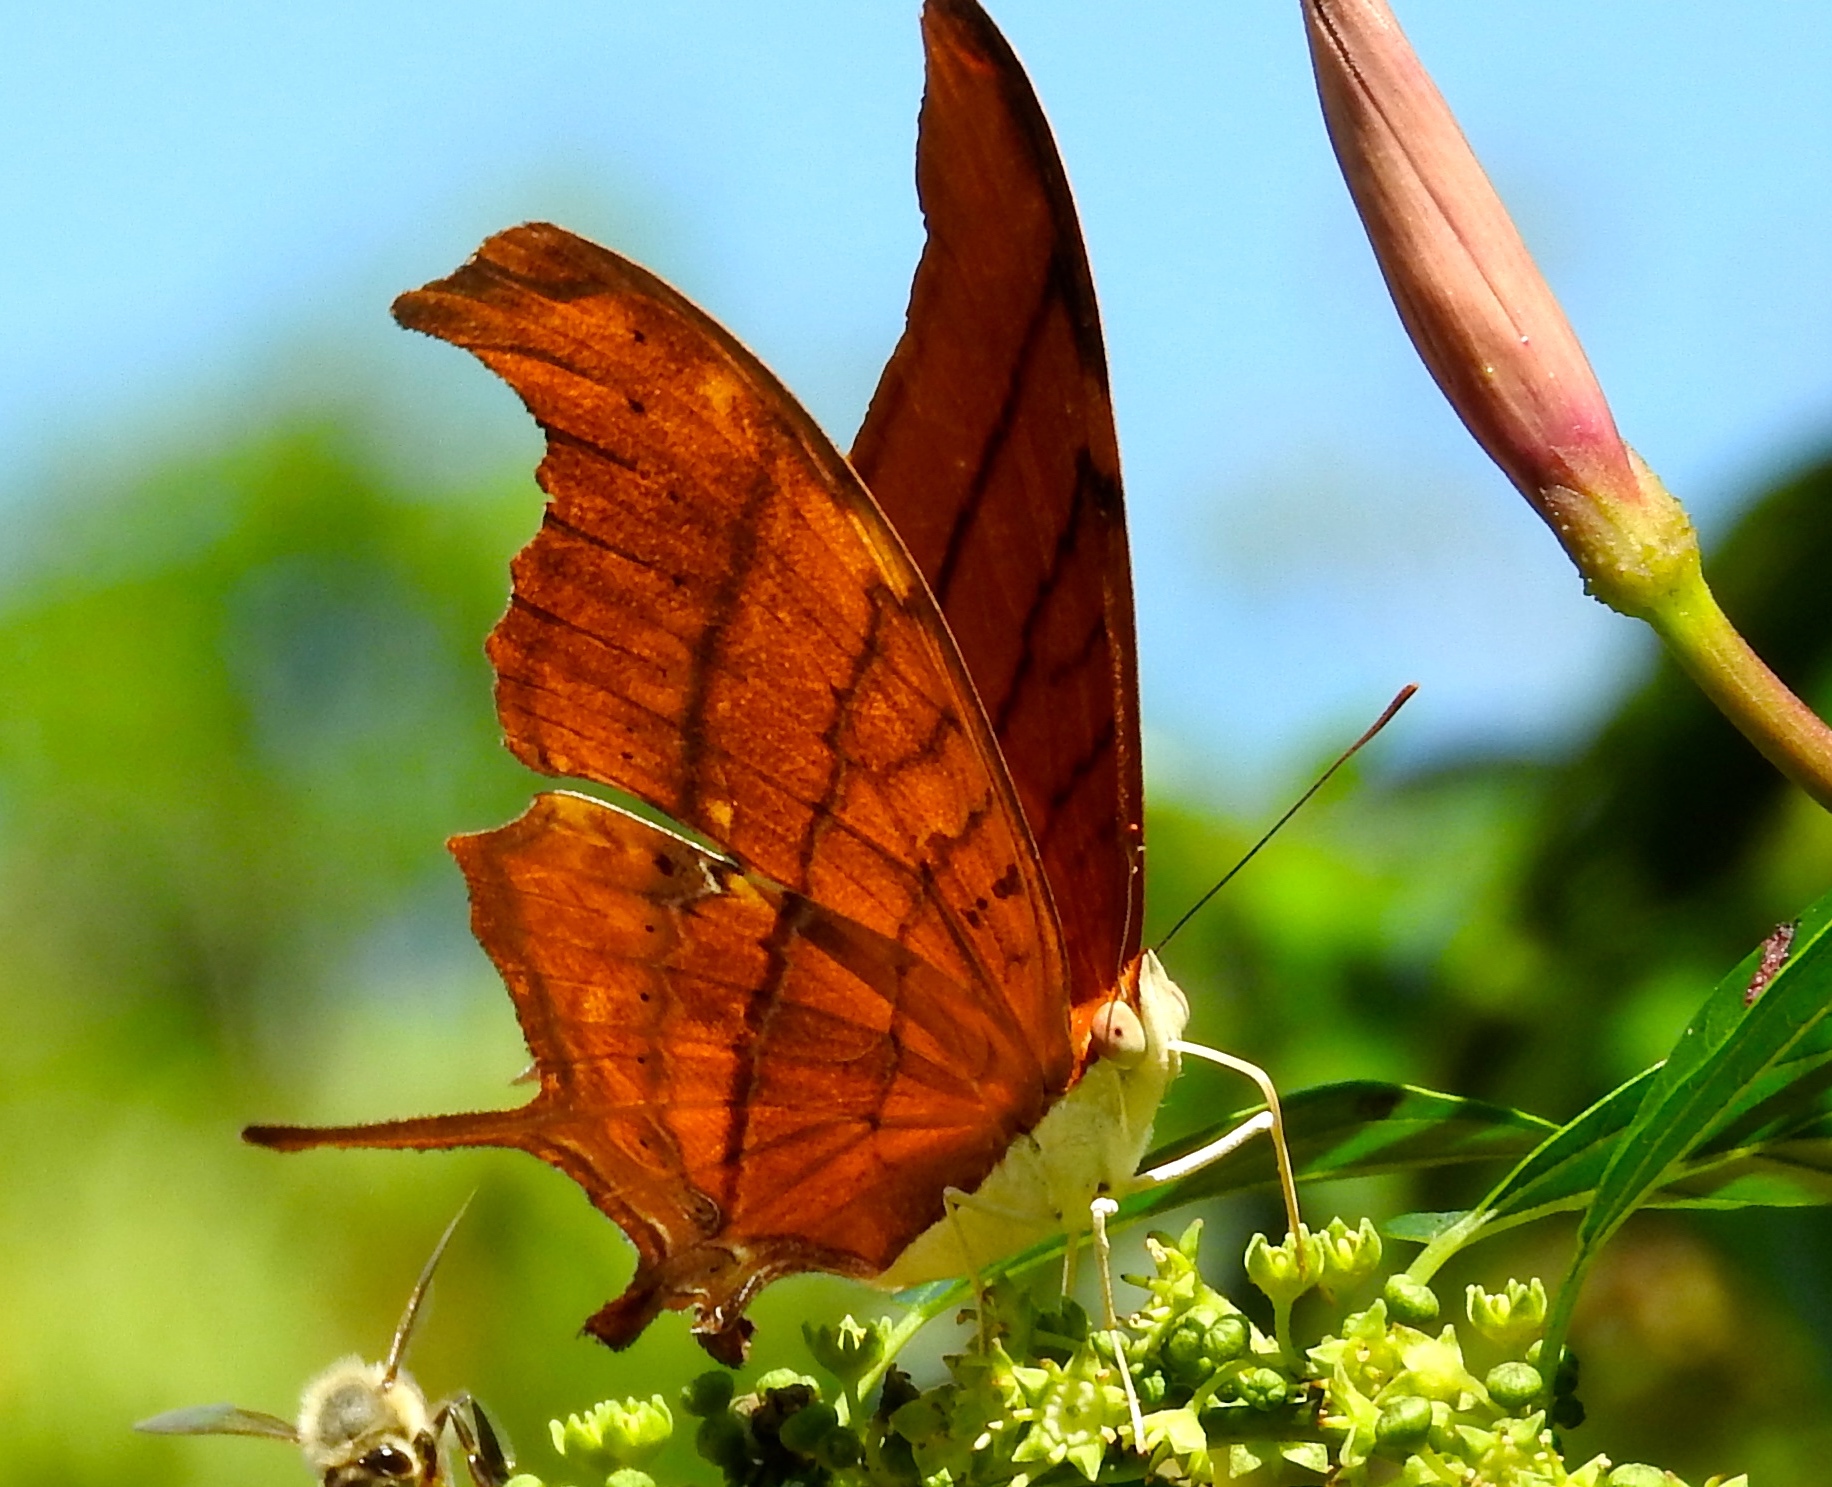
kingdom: Animalia
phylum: Arthropoda
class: Insecta
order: Lepidoptera
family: Nymphalidae
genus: Marpesia
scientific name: Marpesia petreus
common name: Red dagger wing
